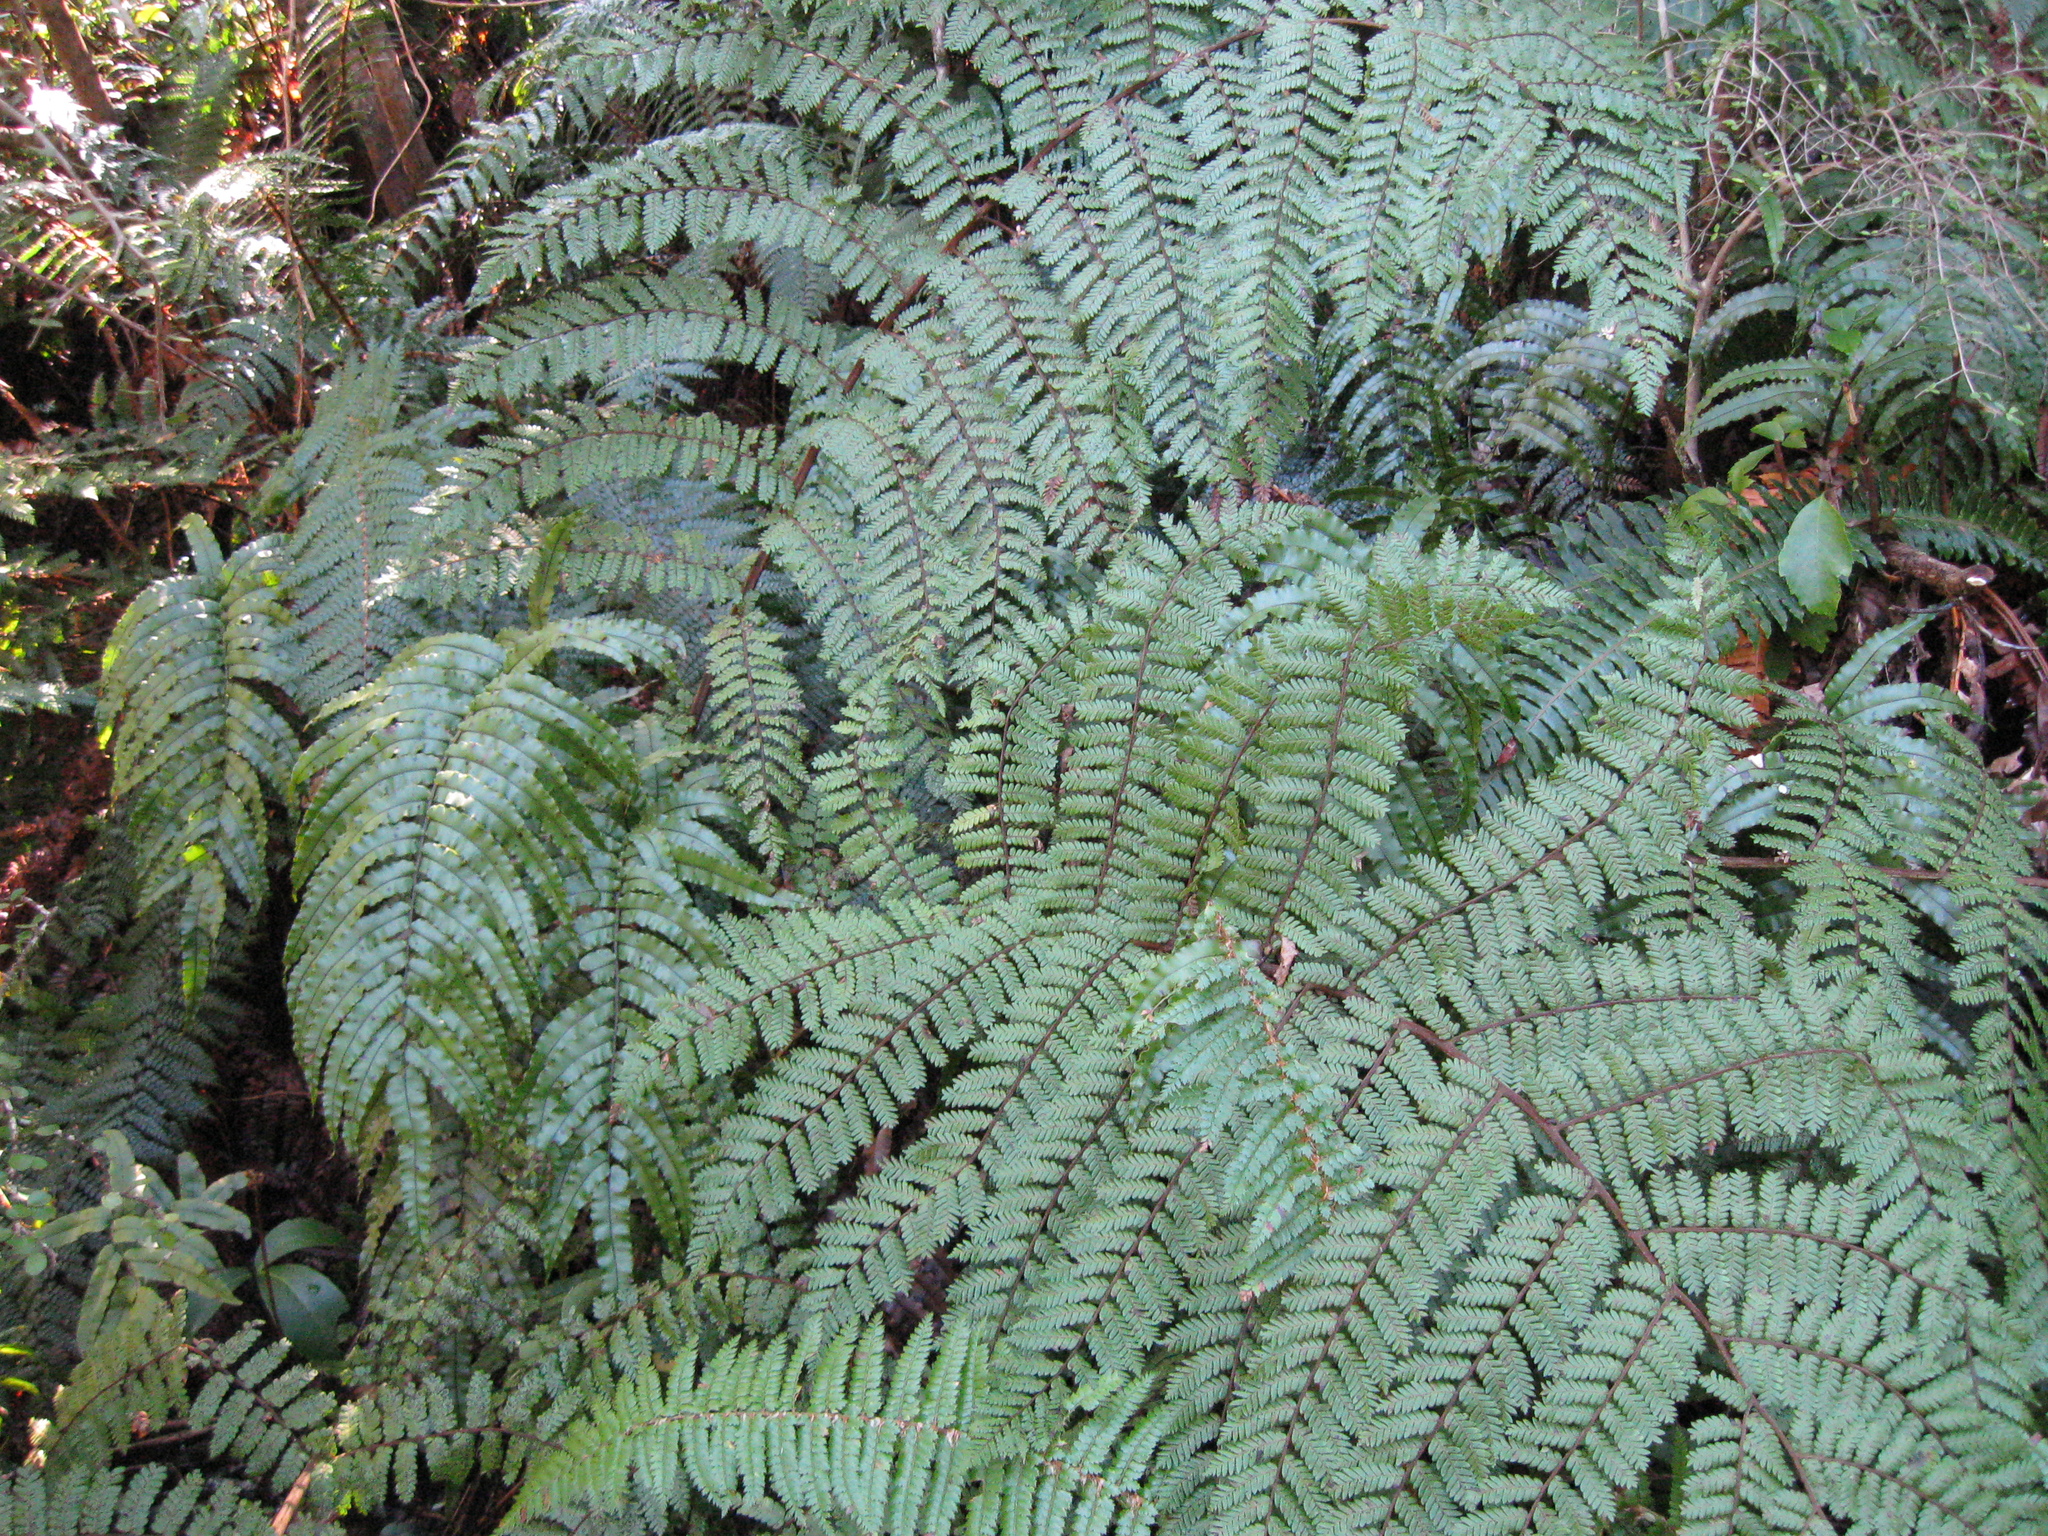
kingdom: Plantae
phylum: Tracheophyta
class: Polypodiopsida
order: Cyatheales
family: Cyatheaceae
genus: Alsophila
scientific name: Alsophila colensoi
